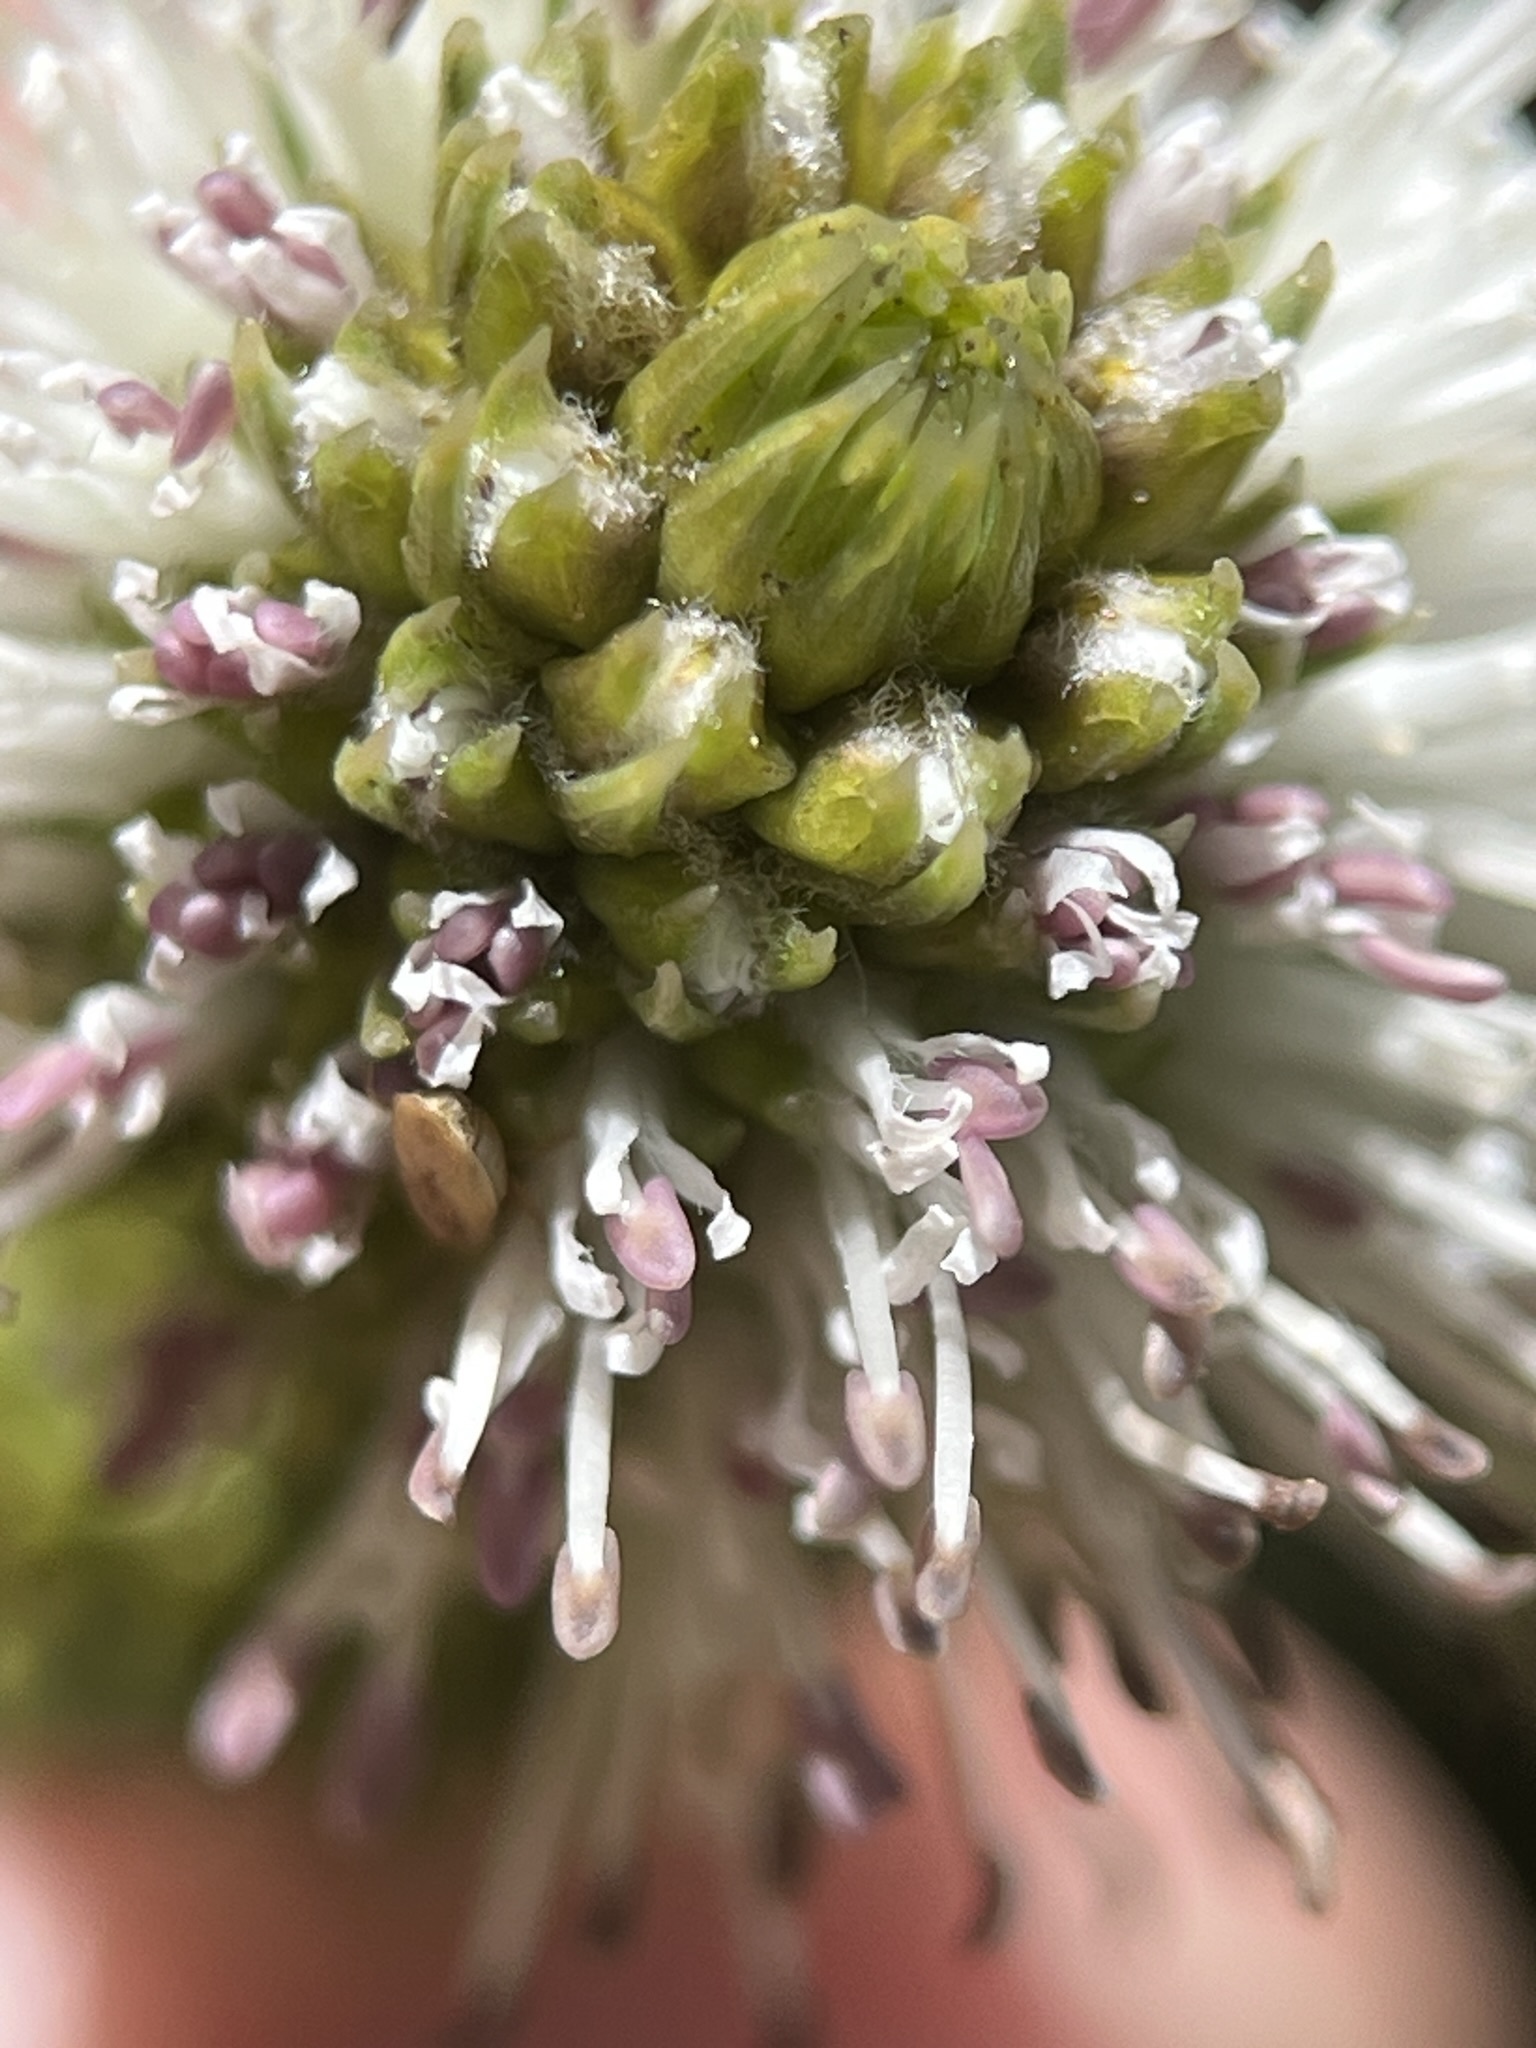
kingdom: Plantae
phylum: Tracheophyta
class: Magnoliopsida
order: Lamiales
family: Stilbaceae
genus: Stilbe
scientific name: Stilbe vestita
